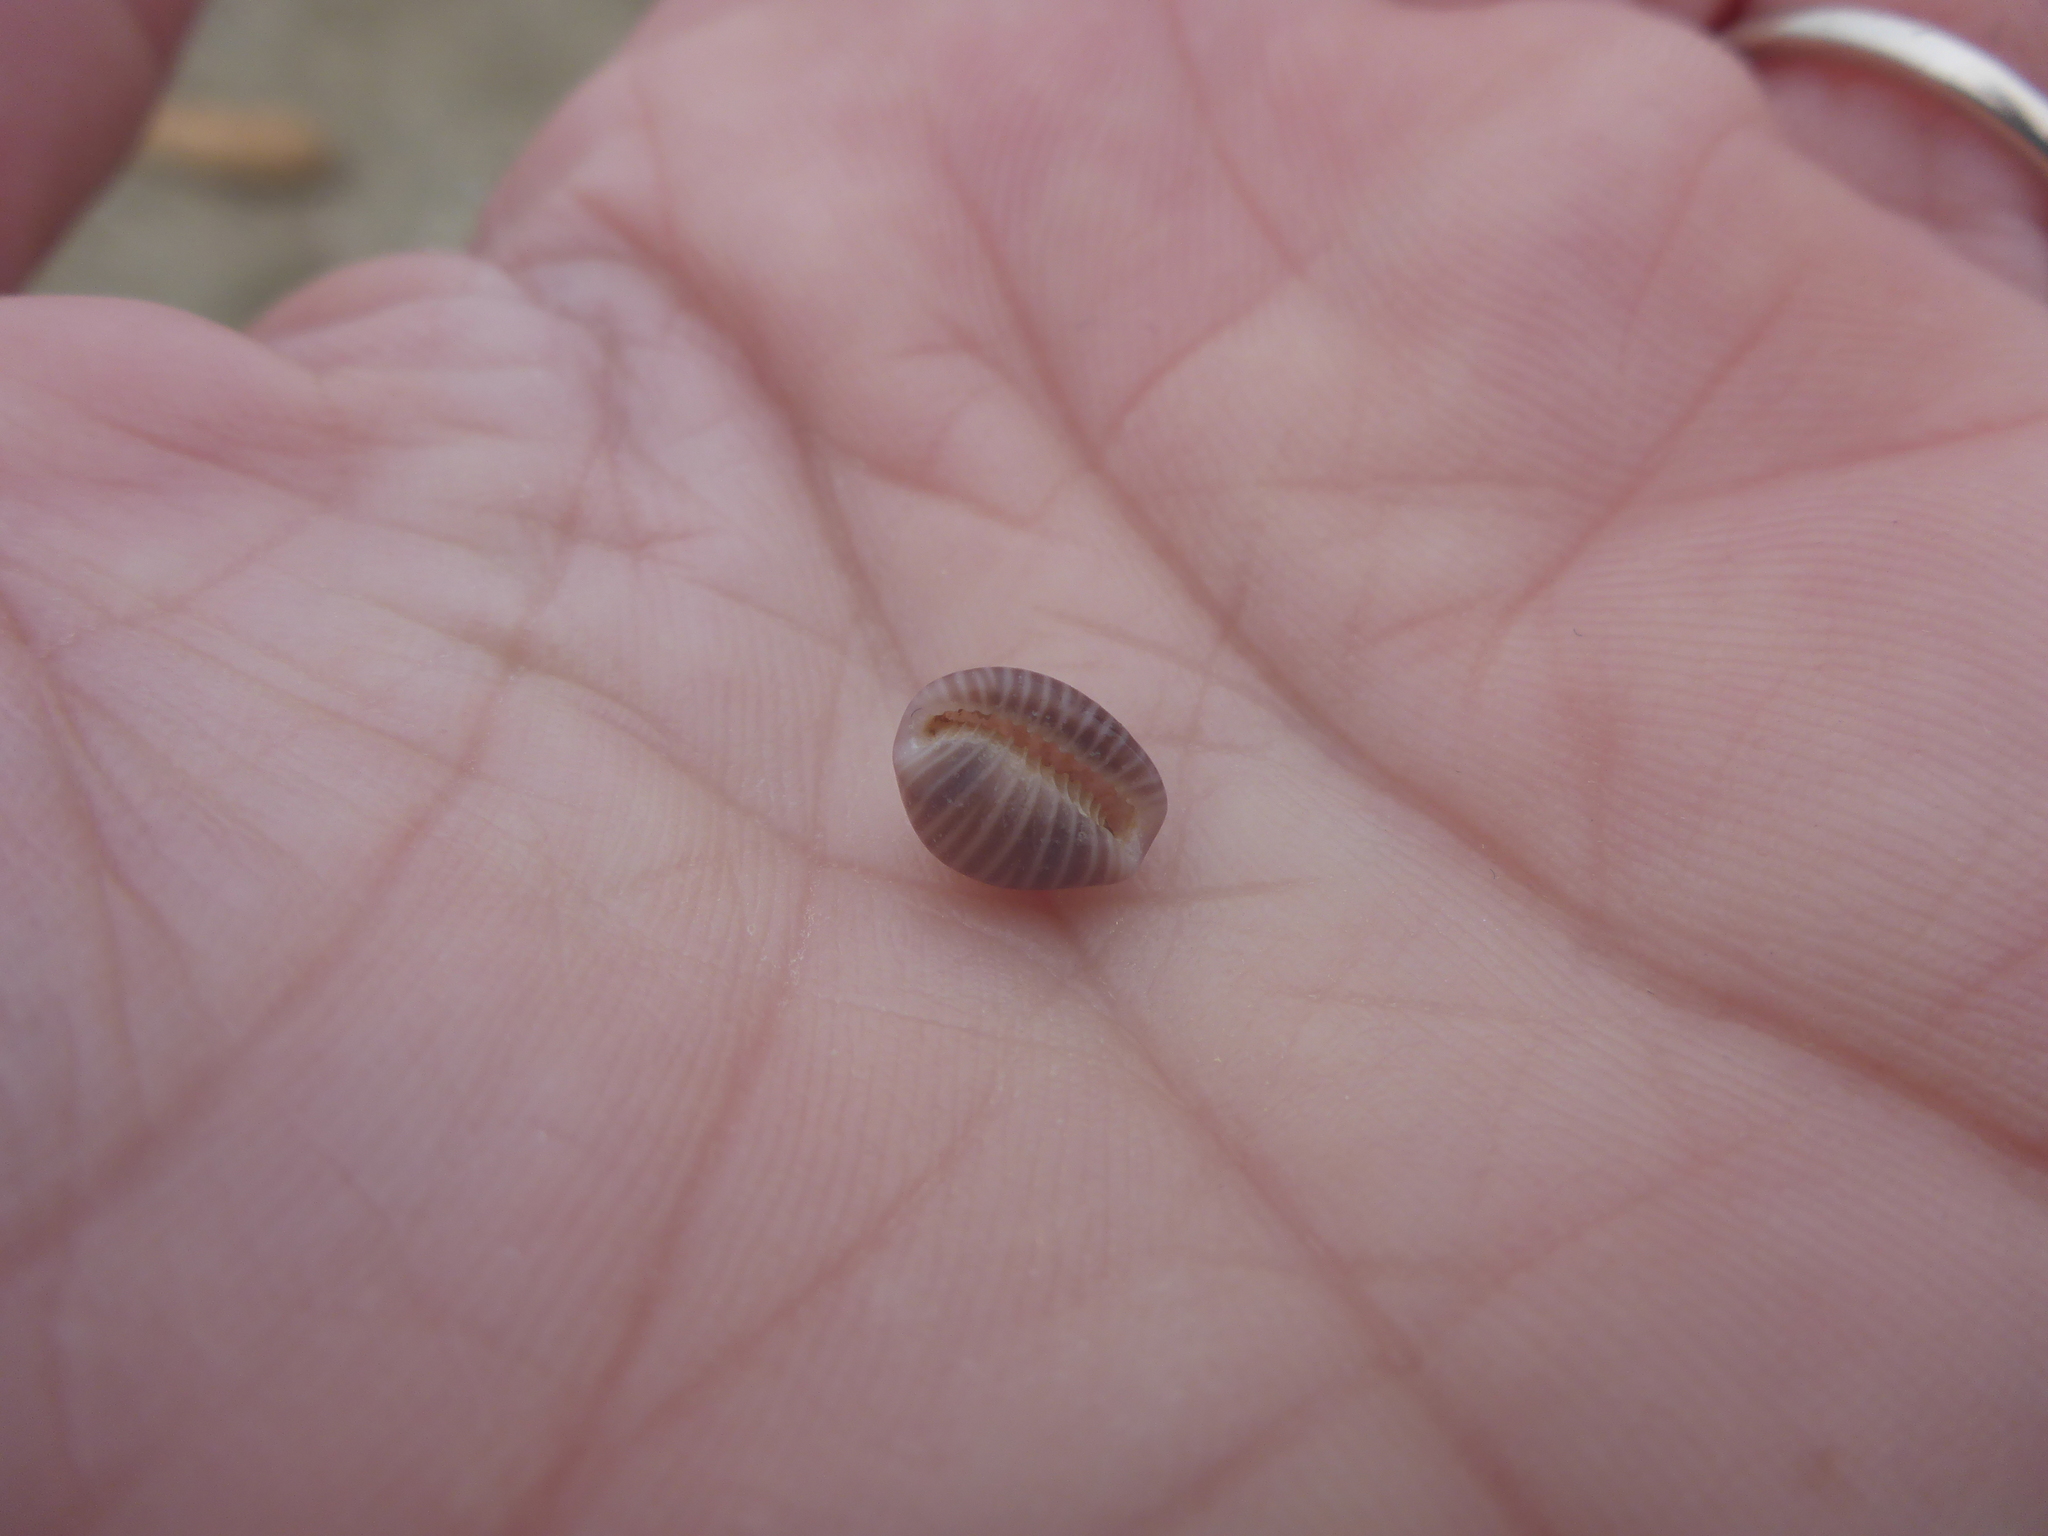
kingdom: Animalia
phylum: Mollusca
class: Gastropoda
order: Littorinimorpha
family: Triviidae
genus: Pseudopusula
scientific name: Pseudopusula californiana
